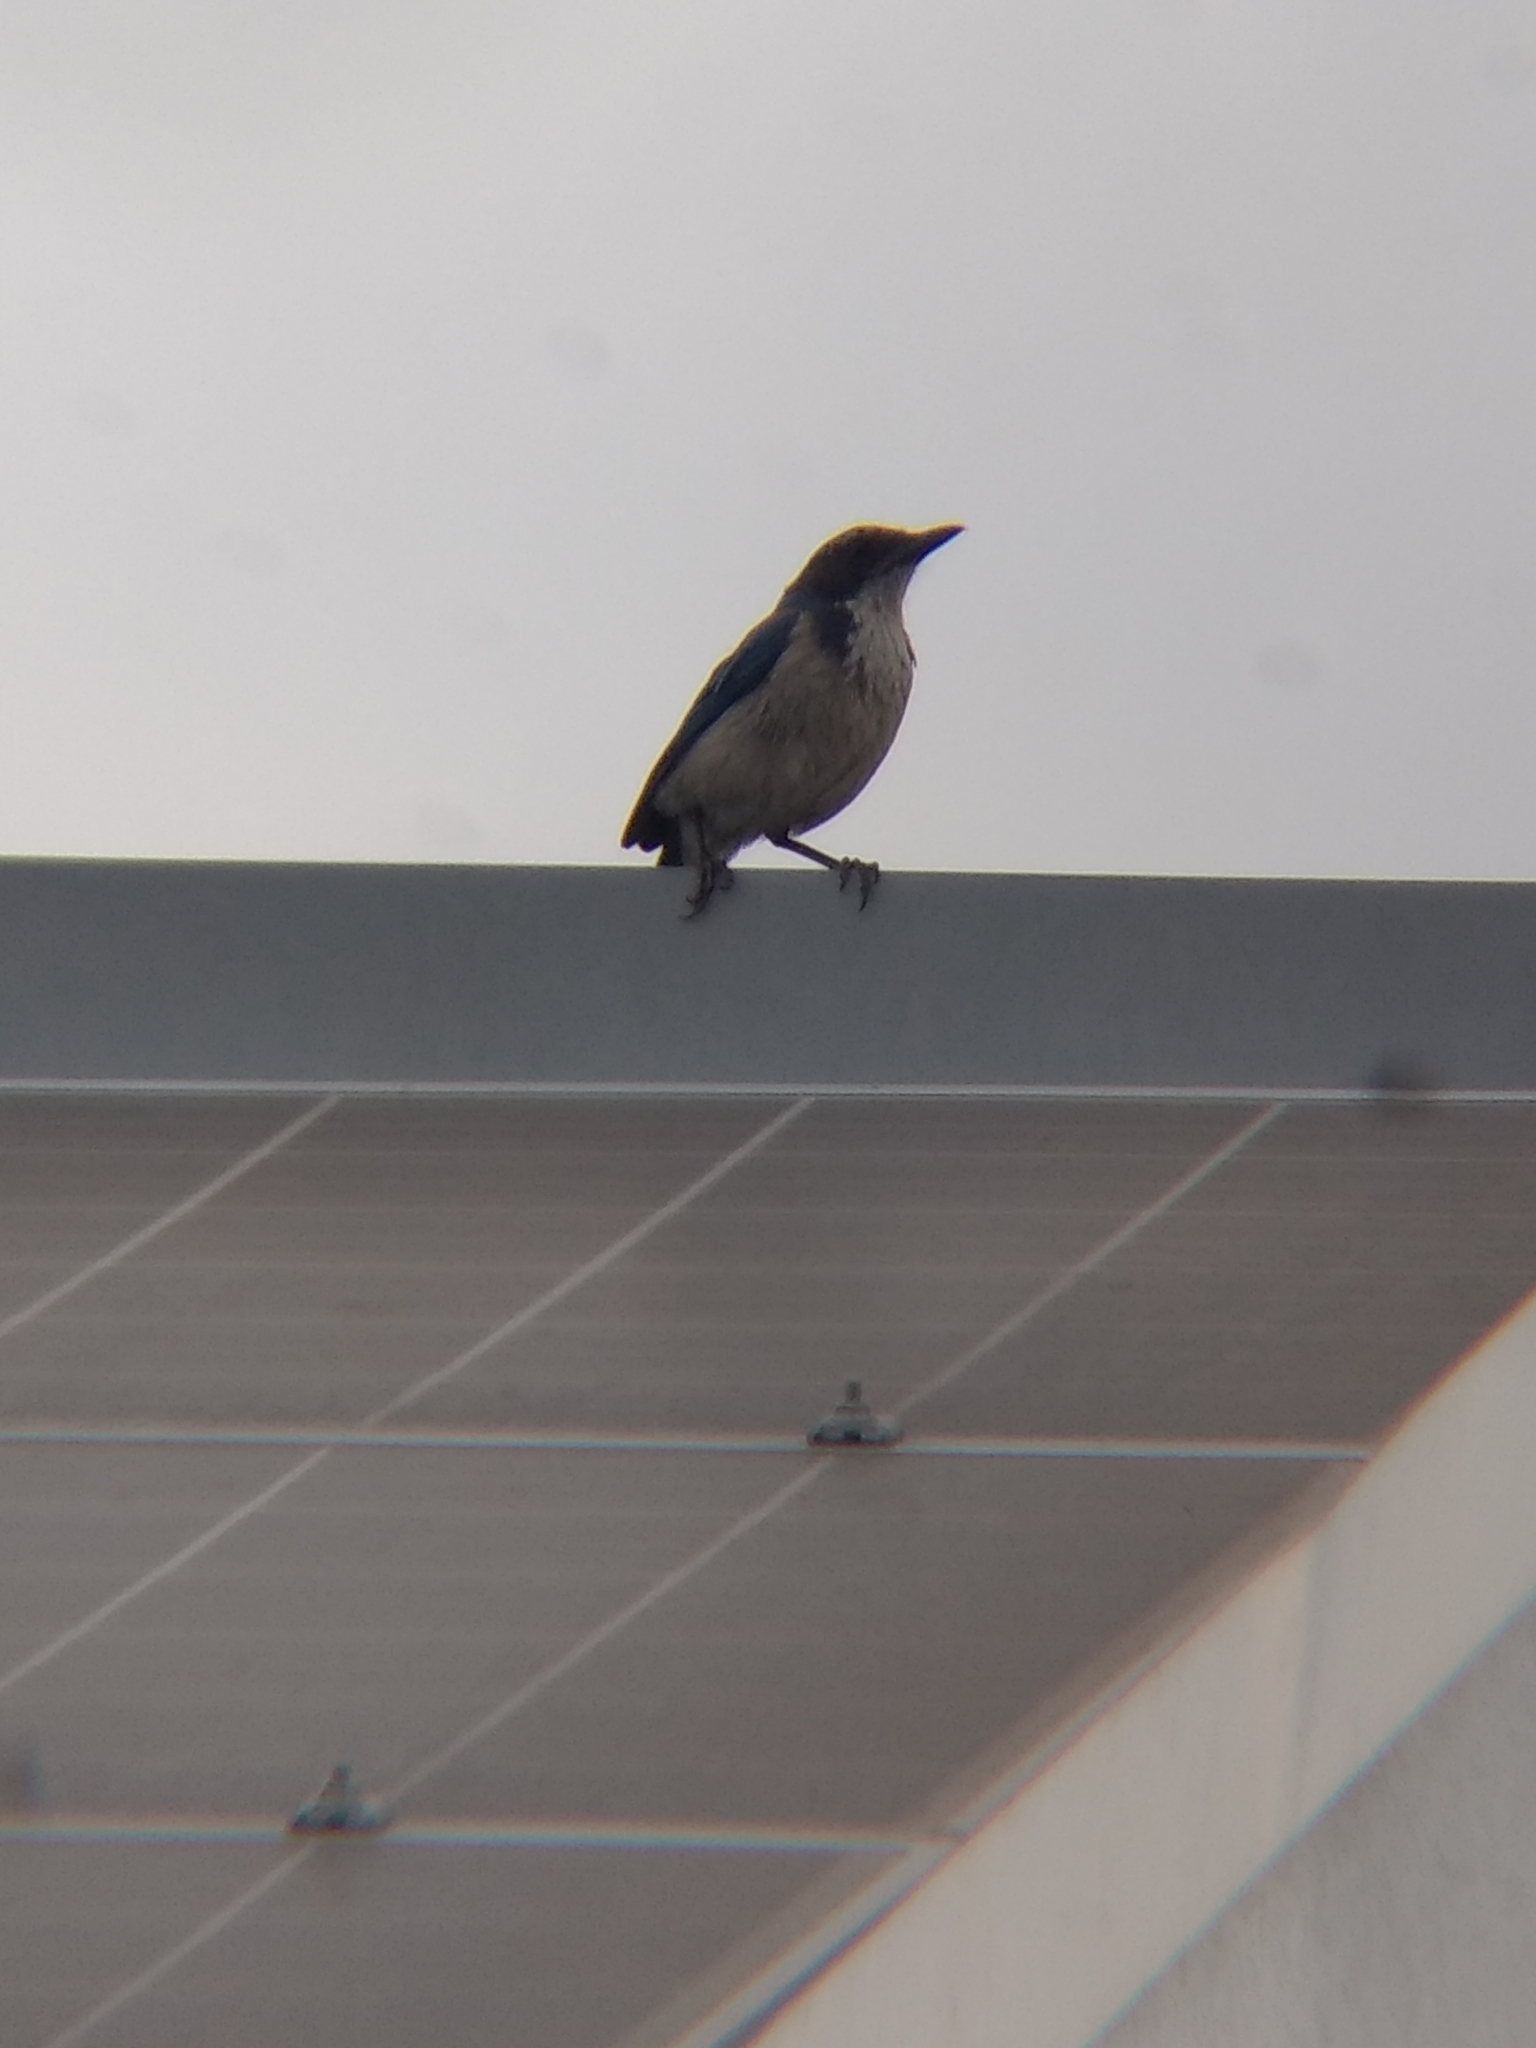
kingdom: Animalia
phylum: Chordata
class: Aves
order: Passeriformes
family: Corvidae
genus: Aphelocoma
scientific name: Aphelocoma californica
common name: California scrub-jay
